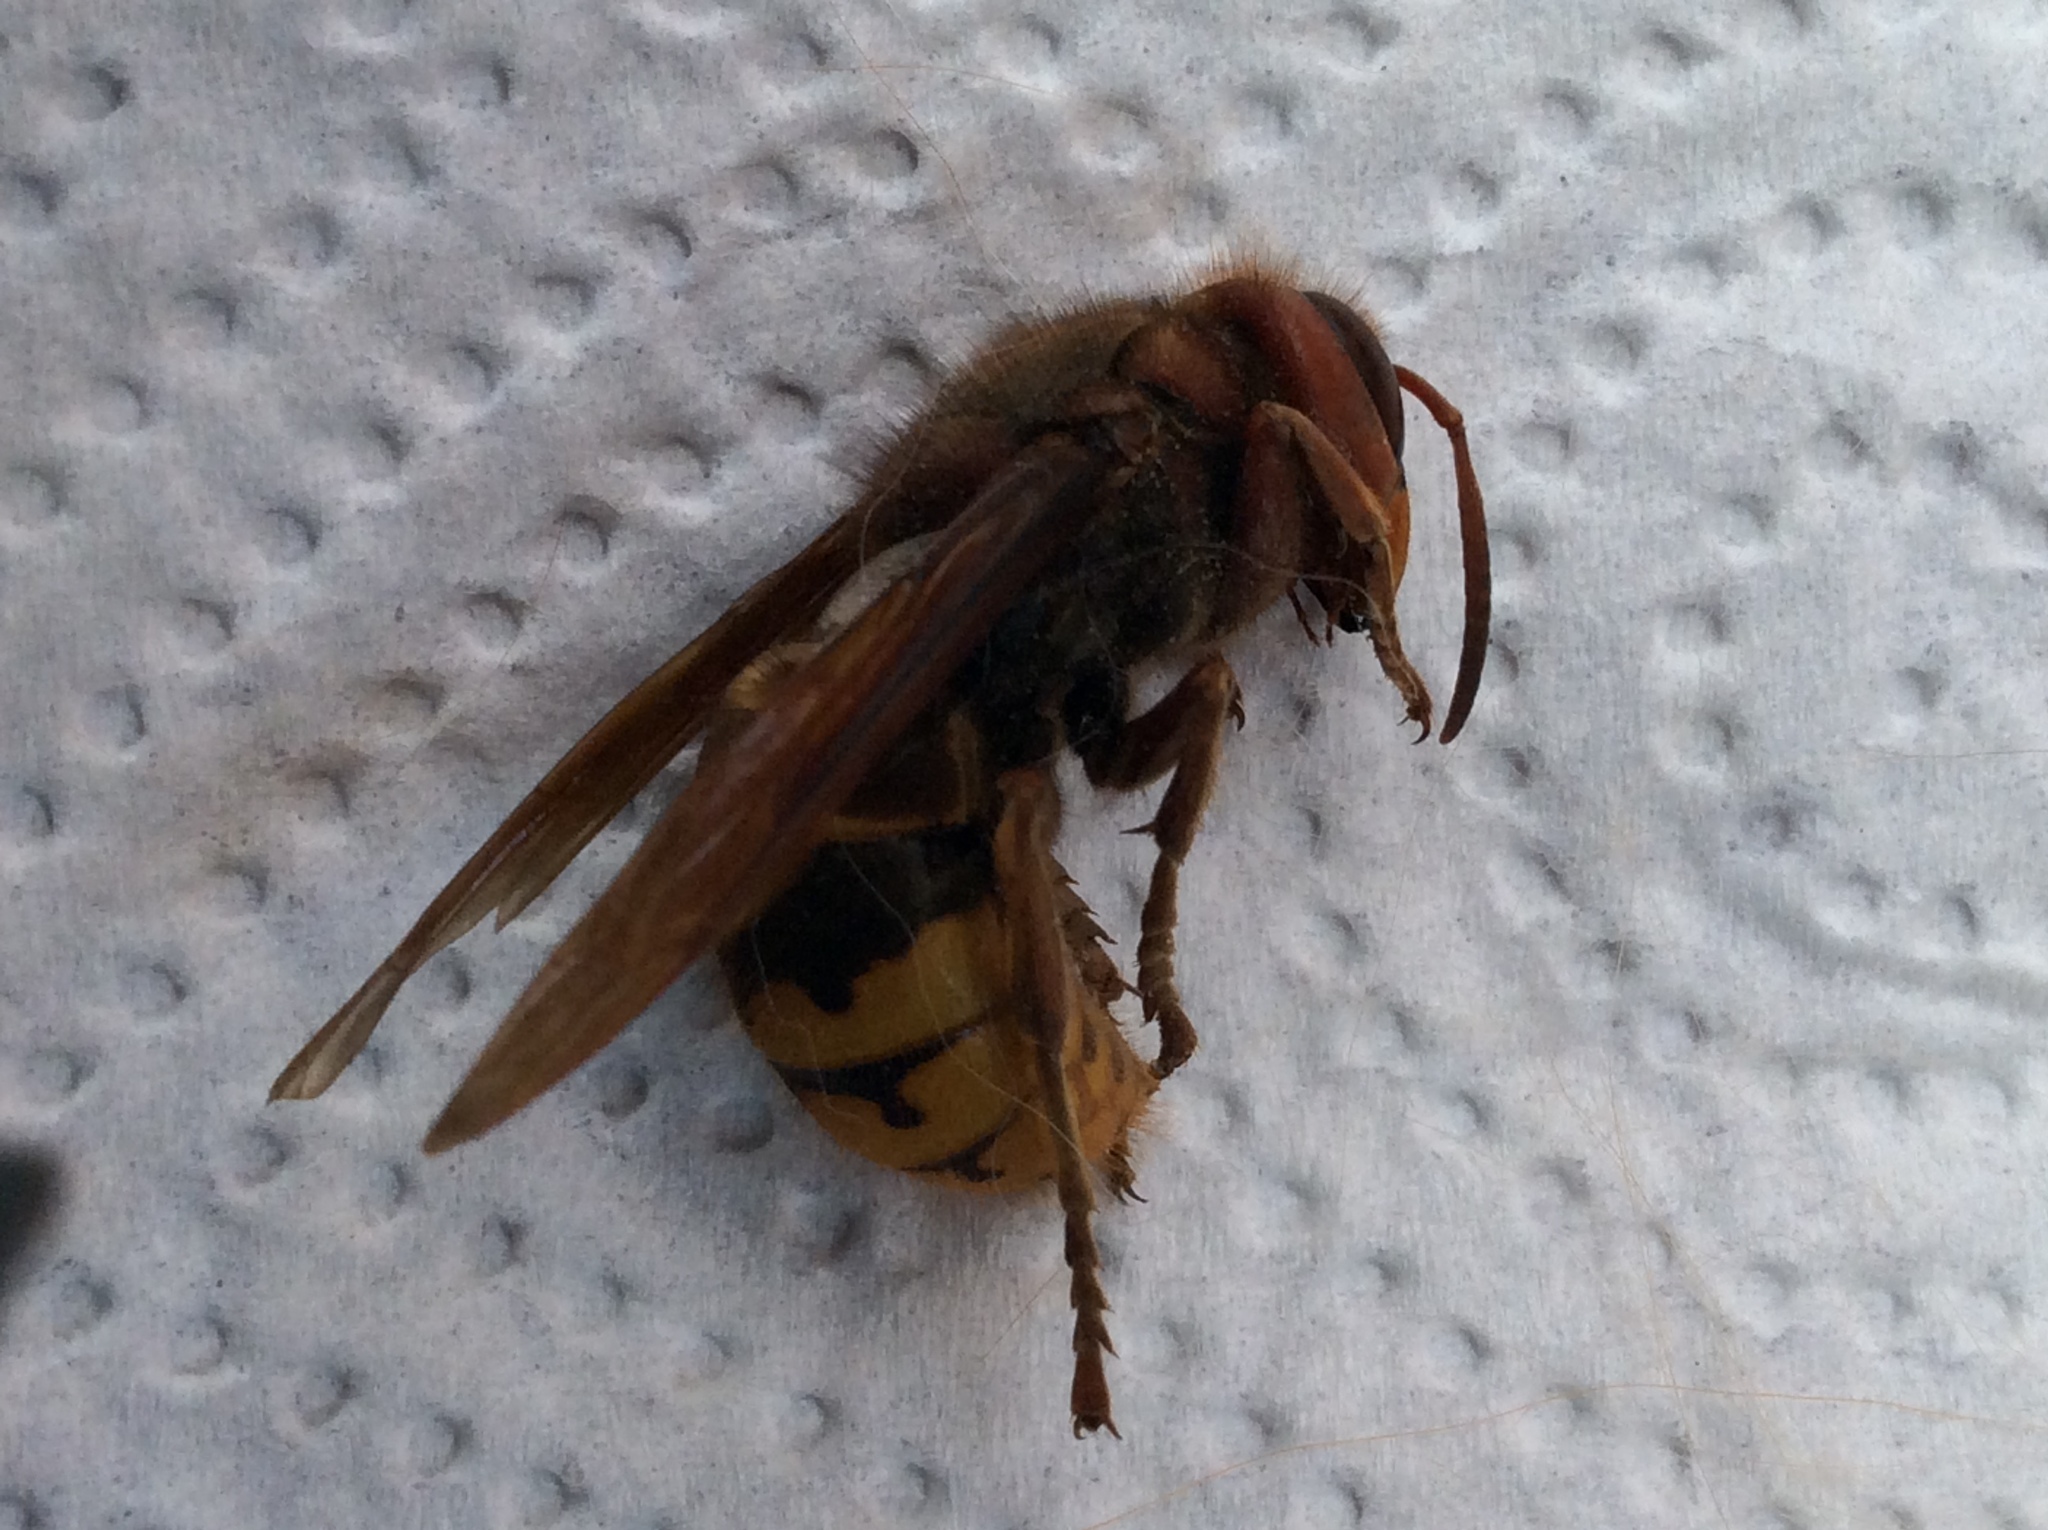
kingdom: Animalia
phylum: Arthropoda
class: Insecta
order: Hymenoptera
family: Vespidae
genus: Vespa
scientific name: Vespa crabro
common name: Hornet
